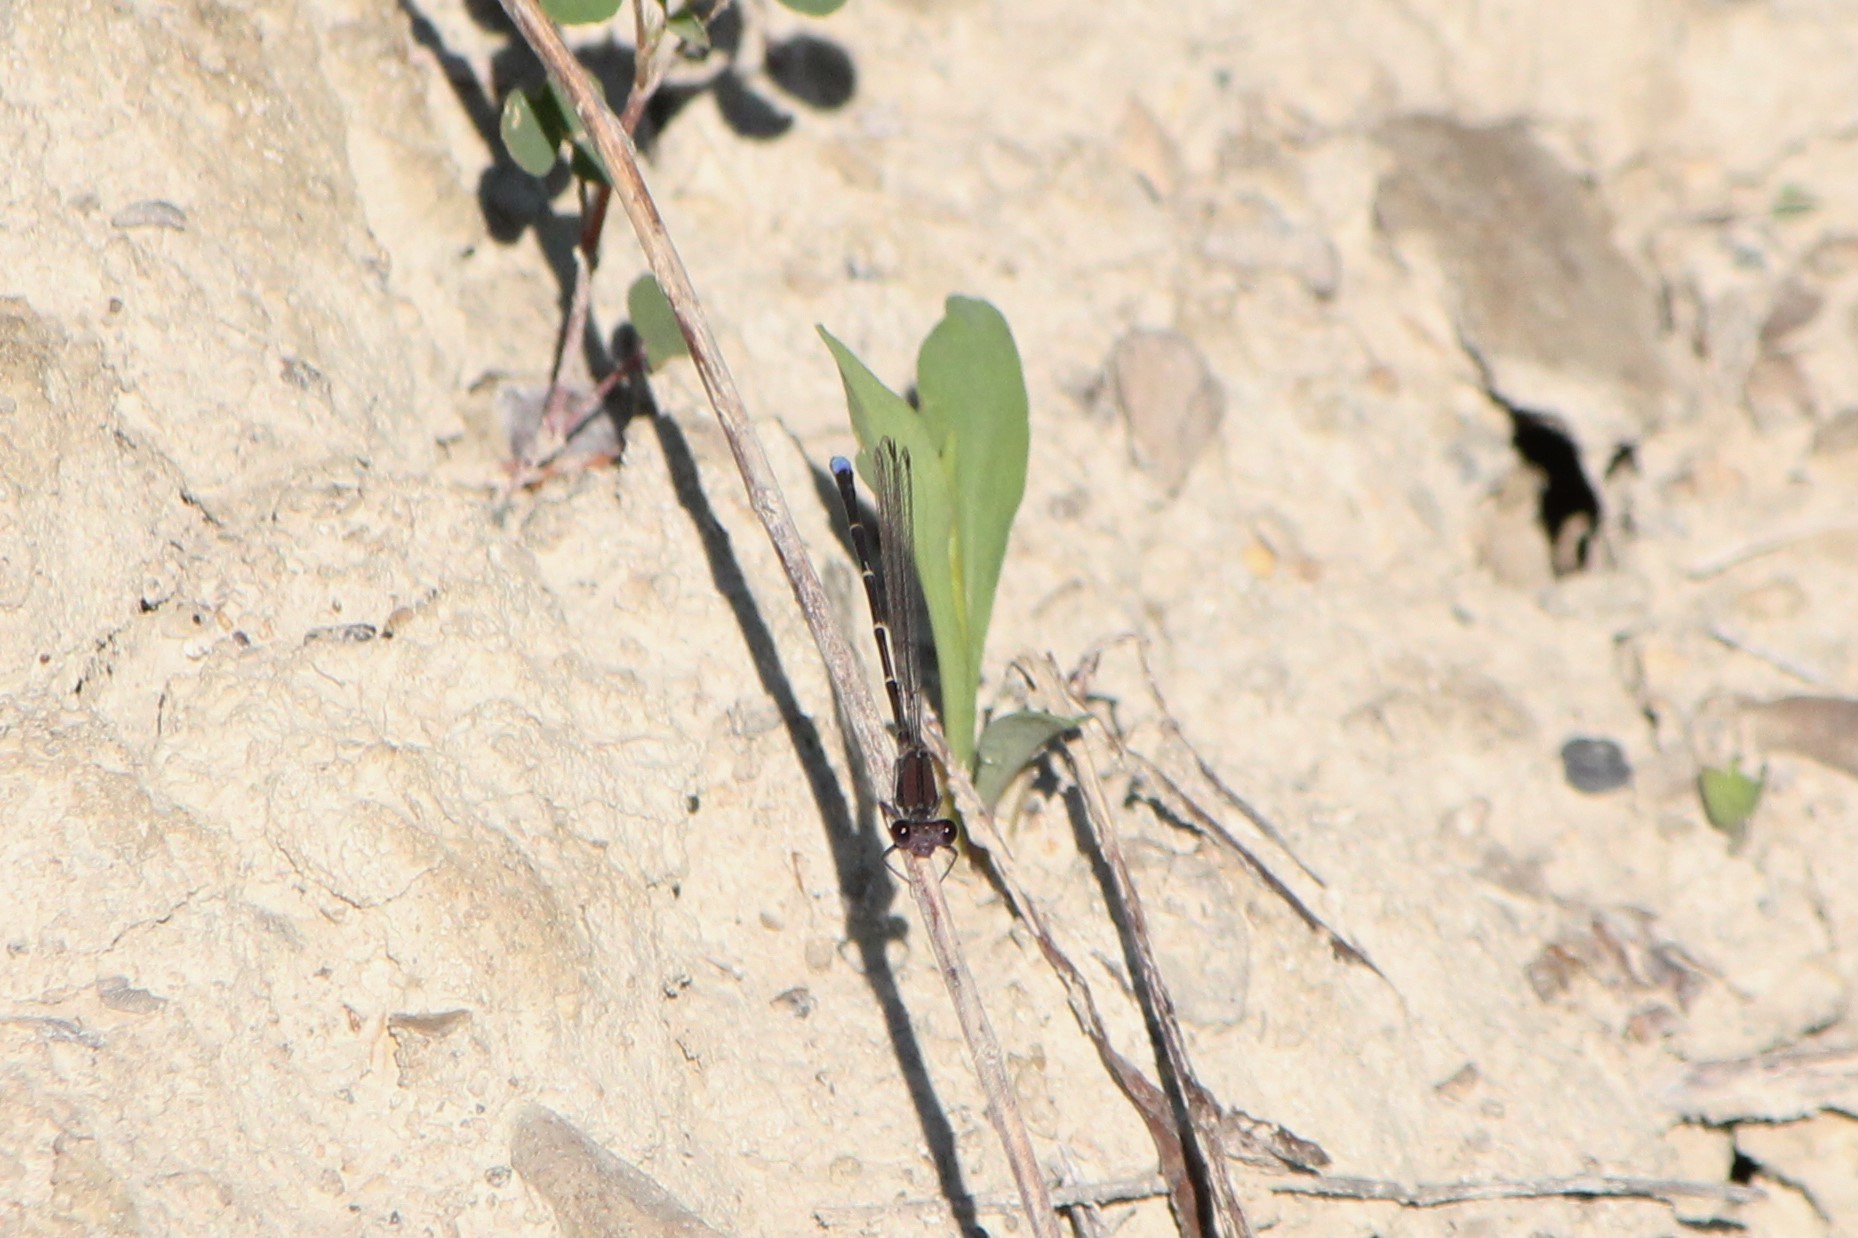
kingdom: Animalia
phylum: Arthropoda
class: Insecta
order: Odonata
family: Coenagrionidae
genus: Argia
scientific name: Argia tibialis
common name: Blue-tipped dancer
